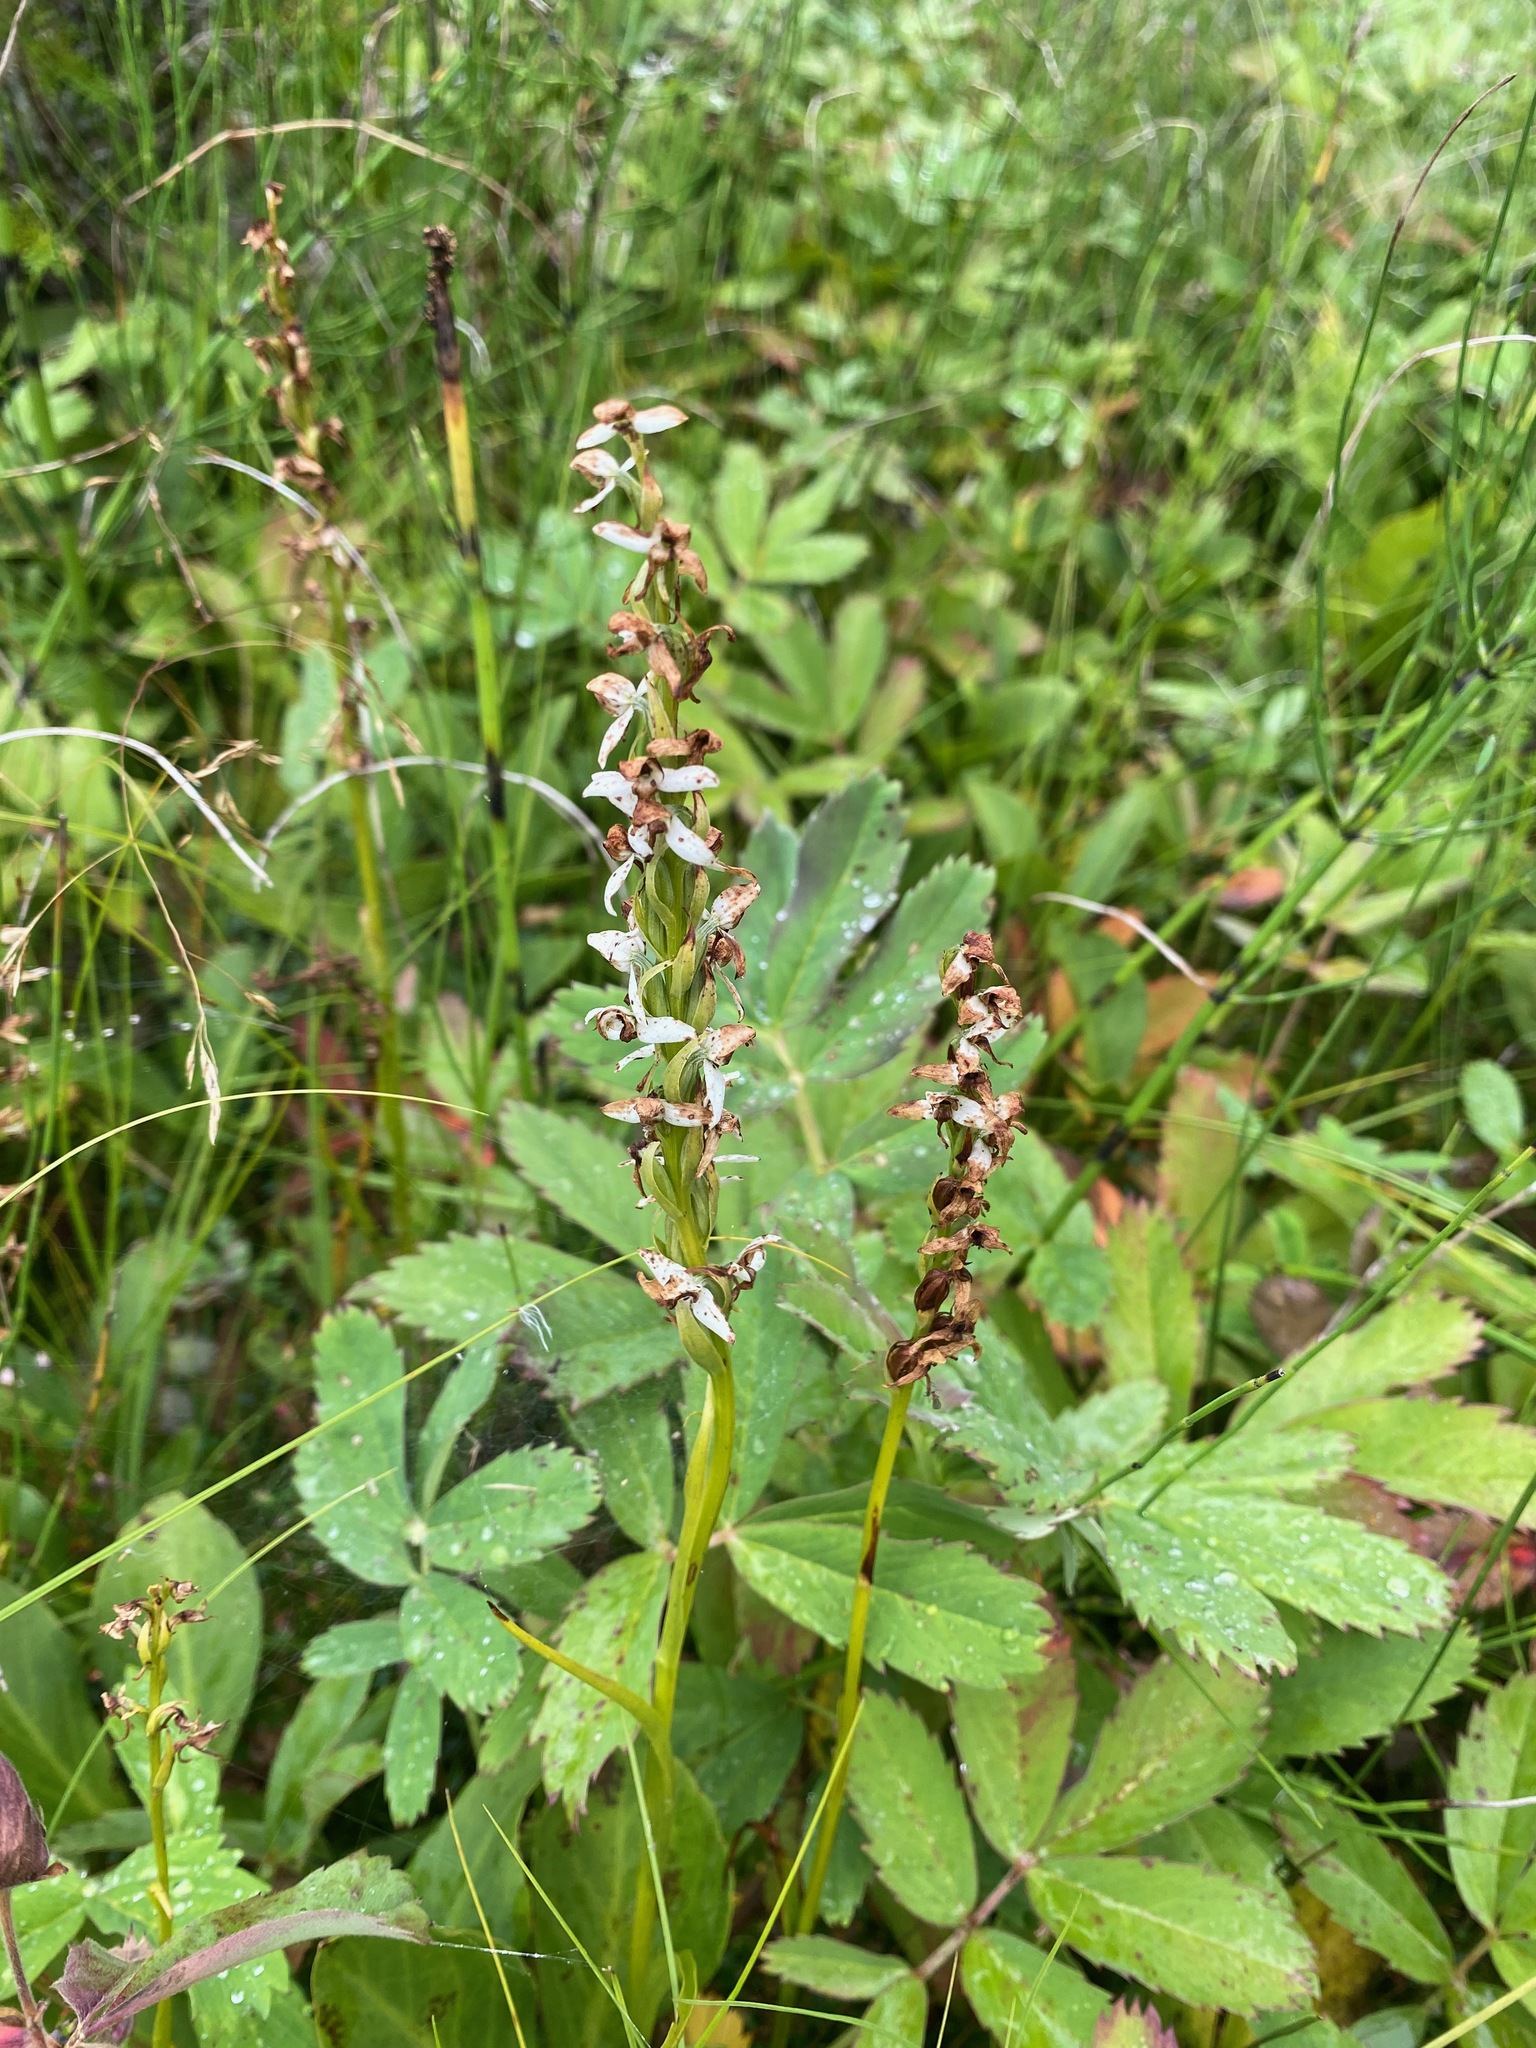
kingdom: Plantae
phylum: Tracheophyta
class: Liliopsida
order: Asparagales
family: Orchidaceae
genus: Platanthera
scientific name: Platanthera dilatata
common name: Bog candles
